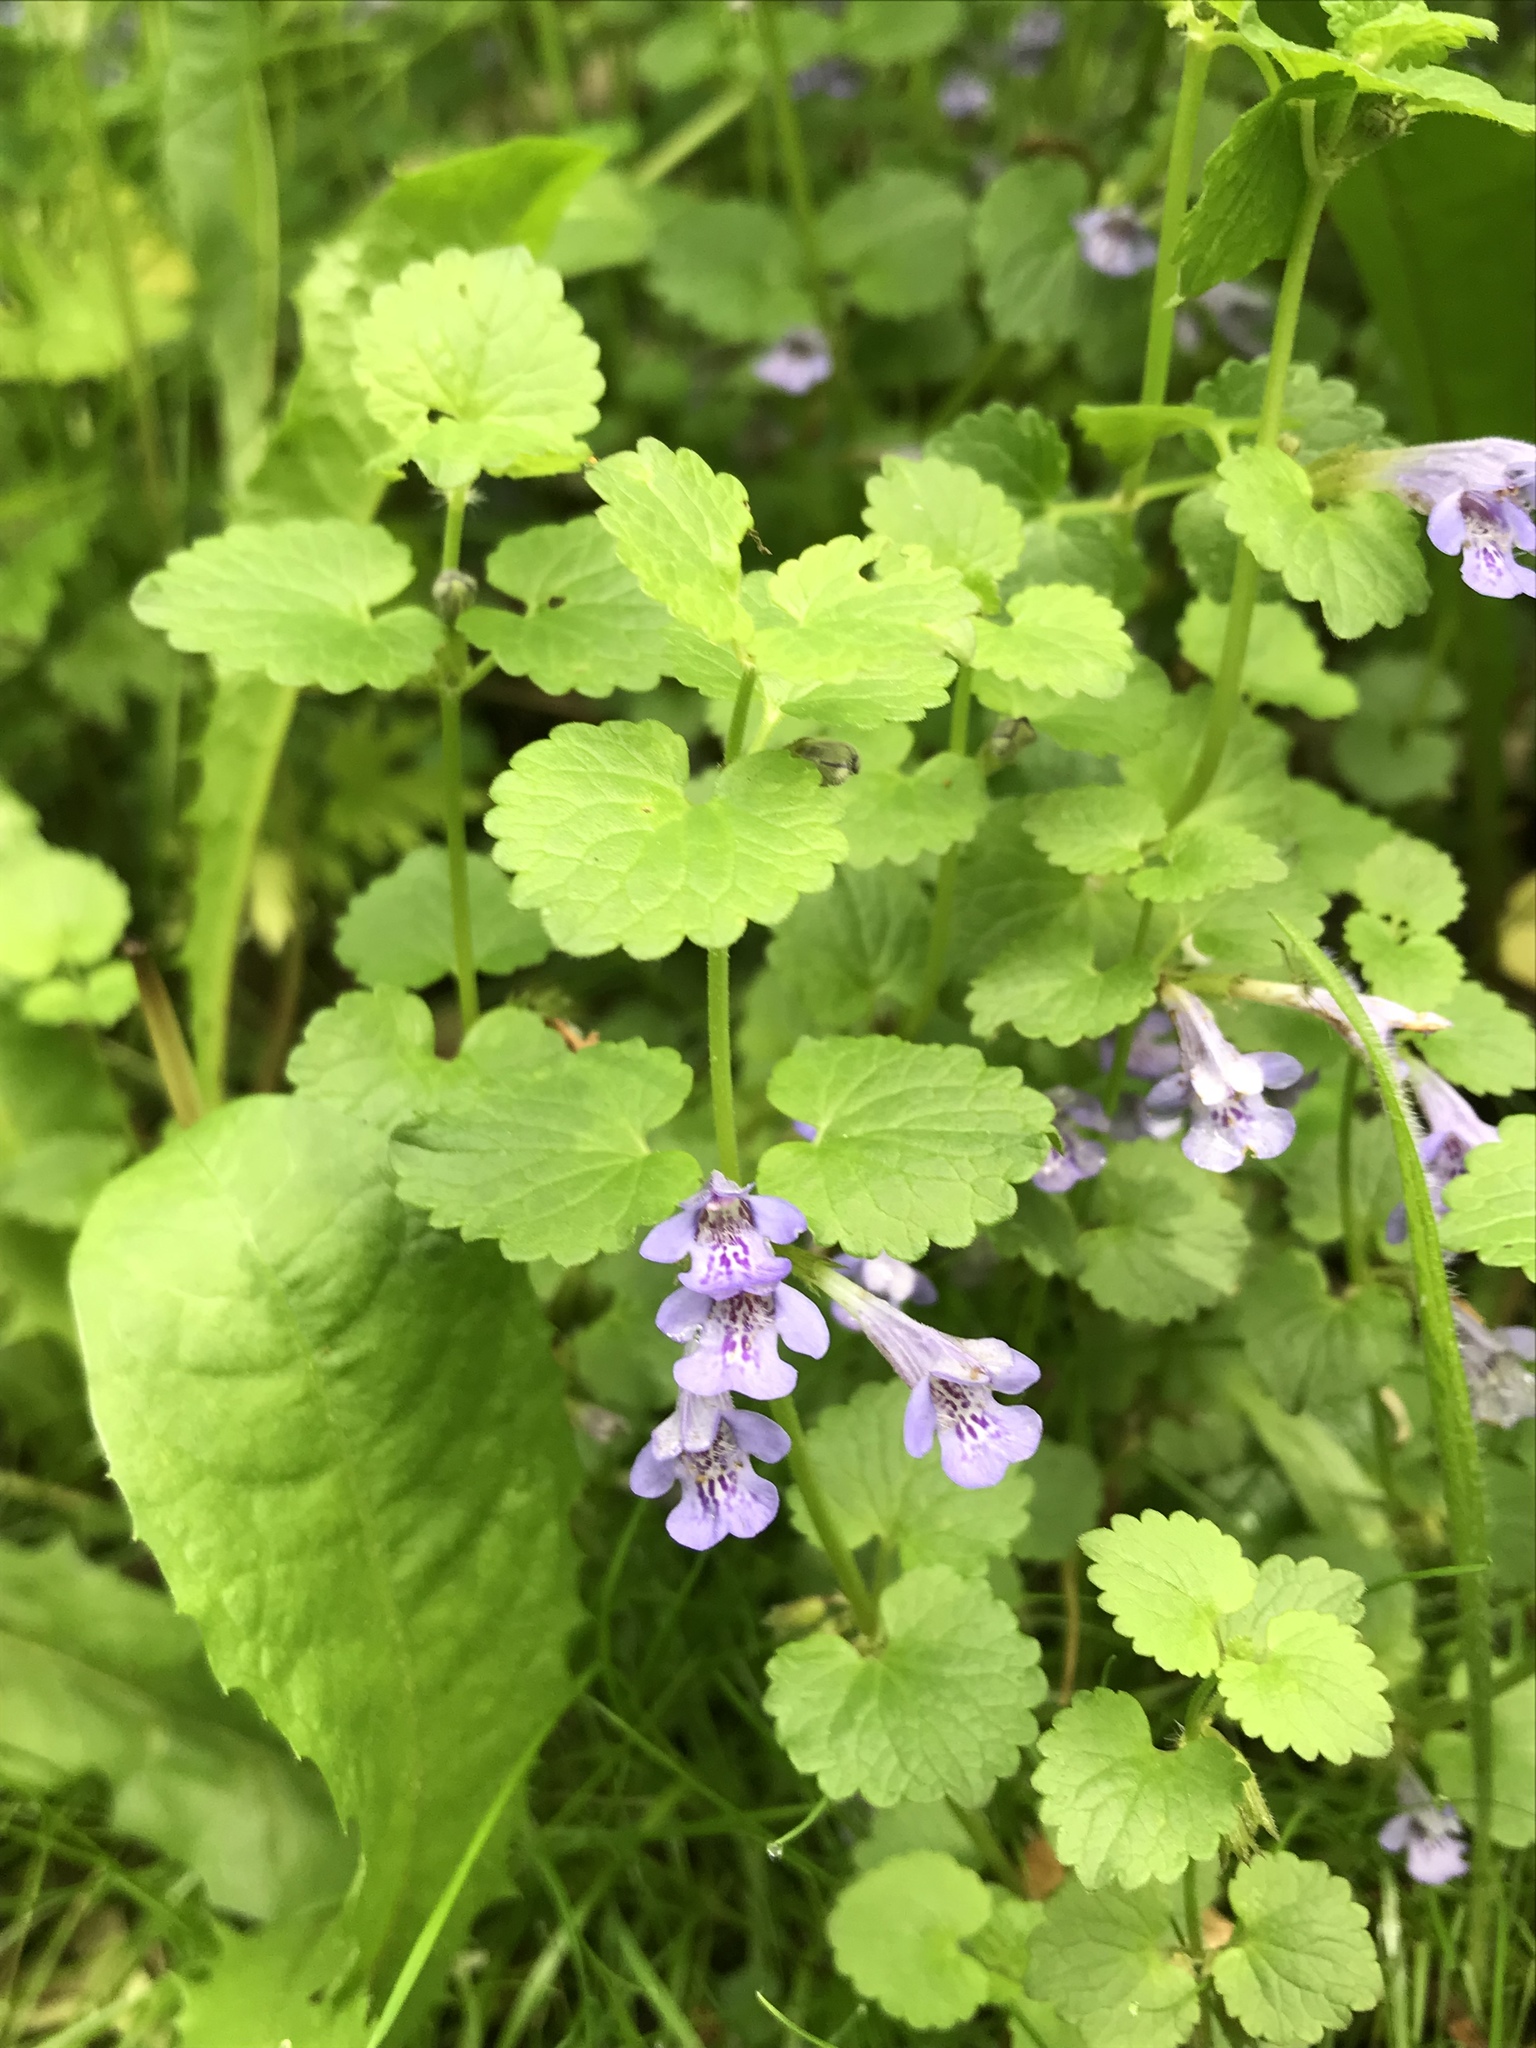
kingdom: Plantae
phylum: Tracheophyta
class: Magnoliopsida
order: Lamiales
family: Lamiaceae
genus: Glechoma
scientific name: Glechoma hederacea
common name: Ground ivy
